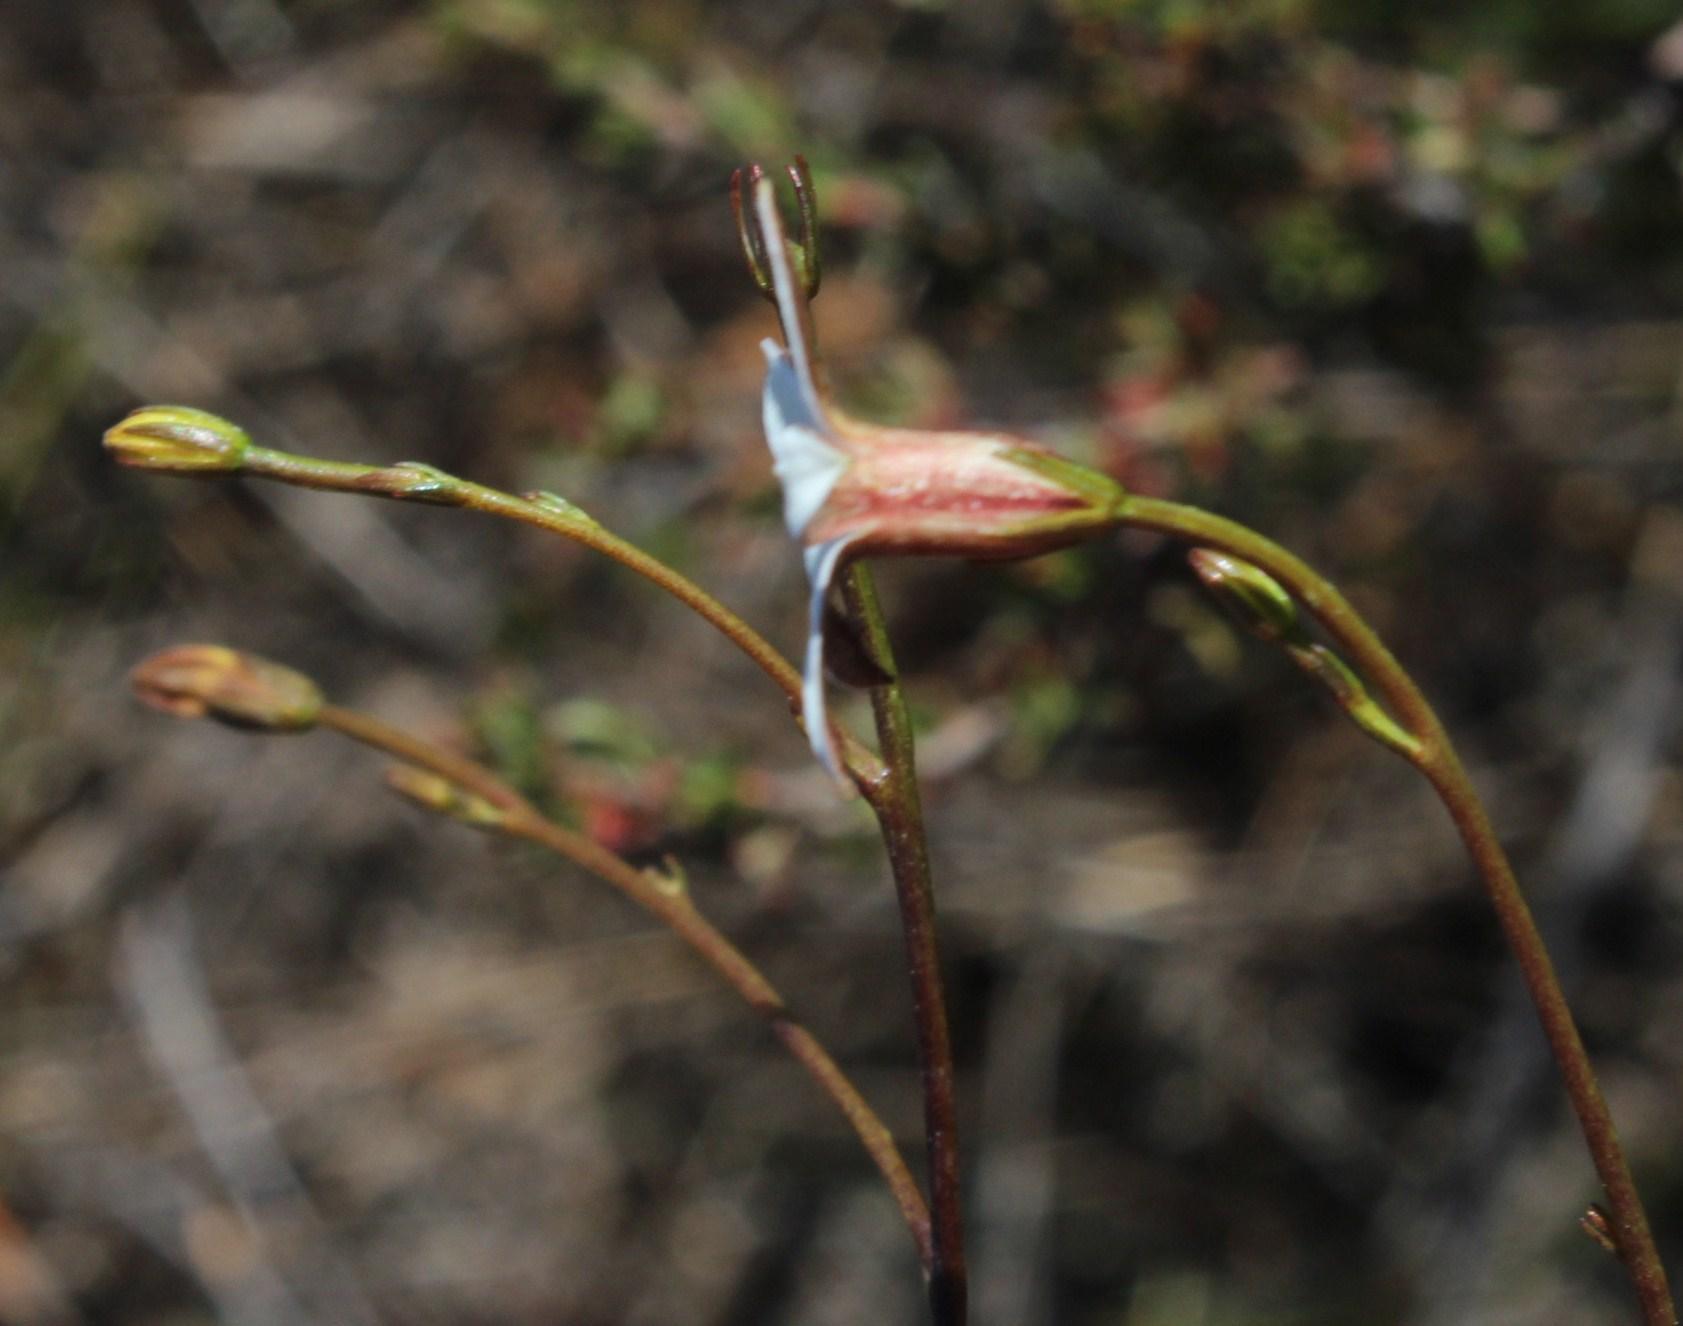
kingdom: Plantae
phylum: Tracheophyta
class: Magnoliopsida
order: Asterales
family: Campanulaceae
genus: Prismatocarpus
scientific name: Prismatocarpus pedunculatus
